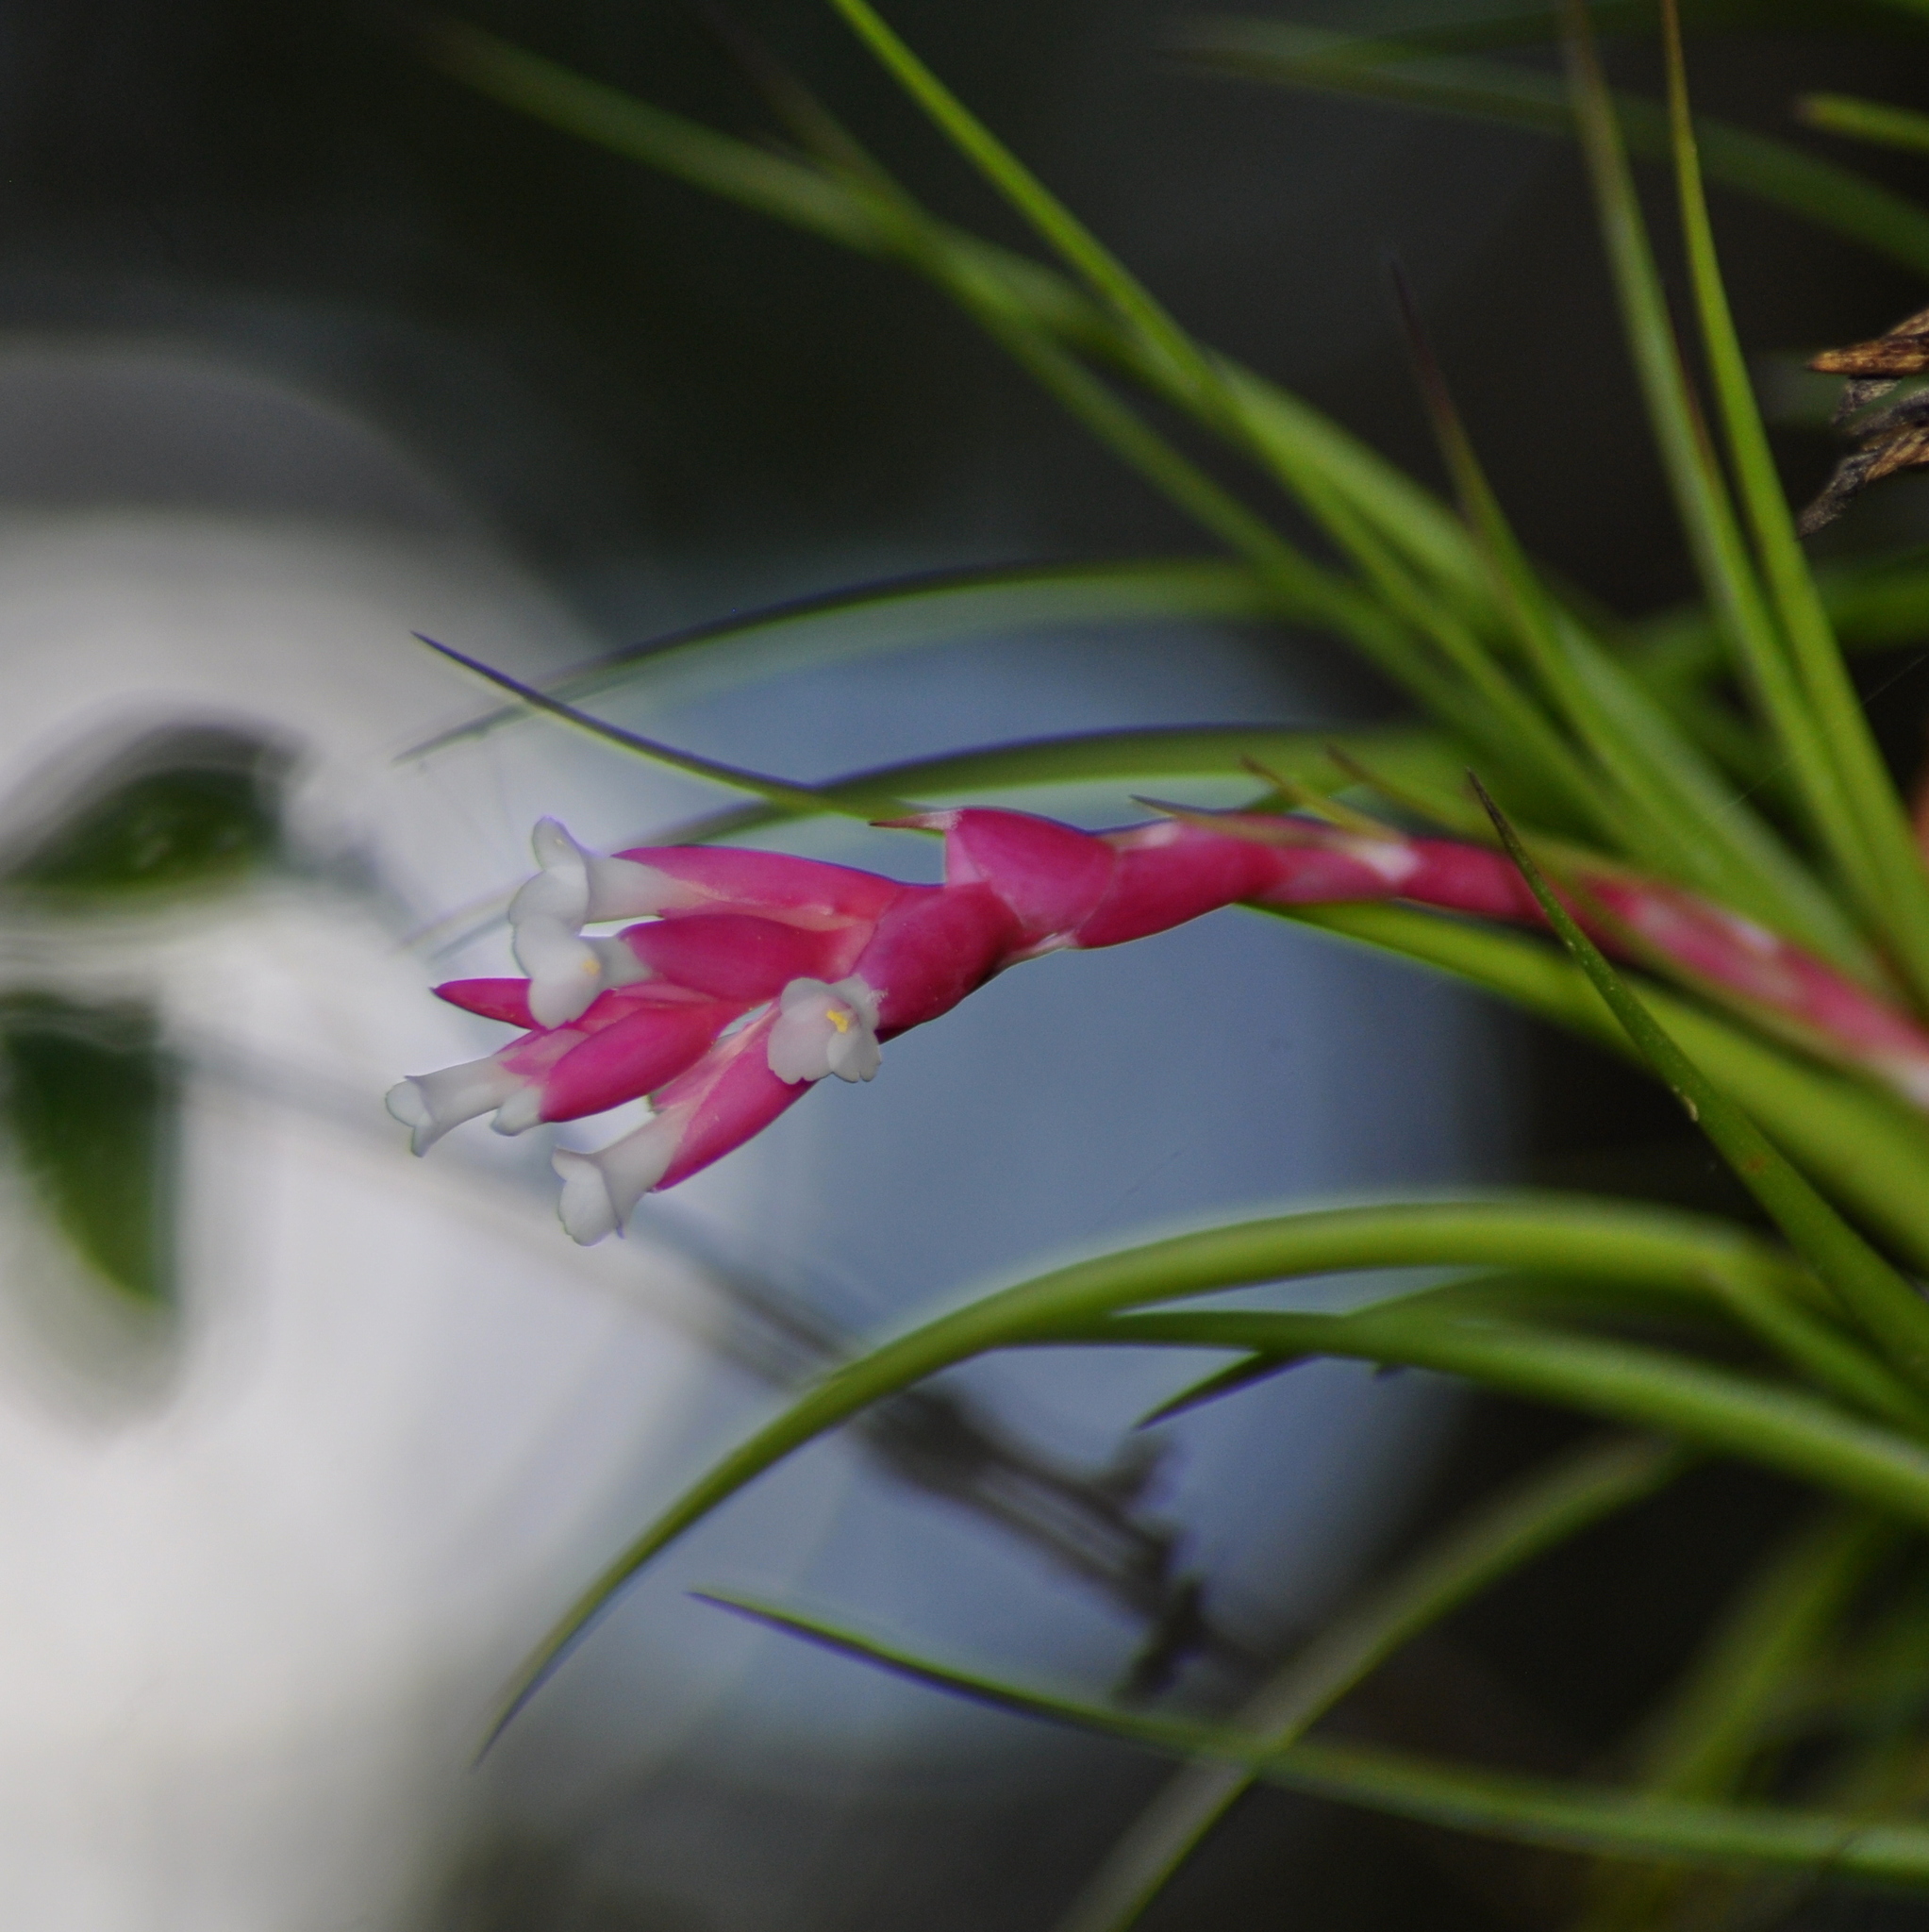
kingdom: Plantae
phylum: Tracheophyta
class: Liliopsida
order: Poales
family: Bromeliaceae
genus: Tillandsia
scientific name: Tillandsia tenuifolia
